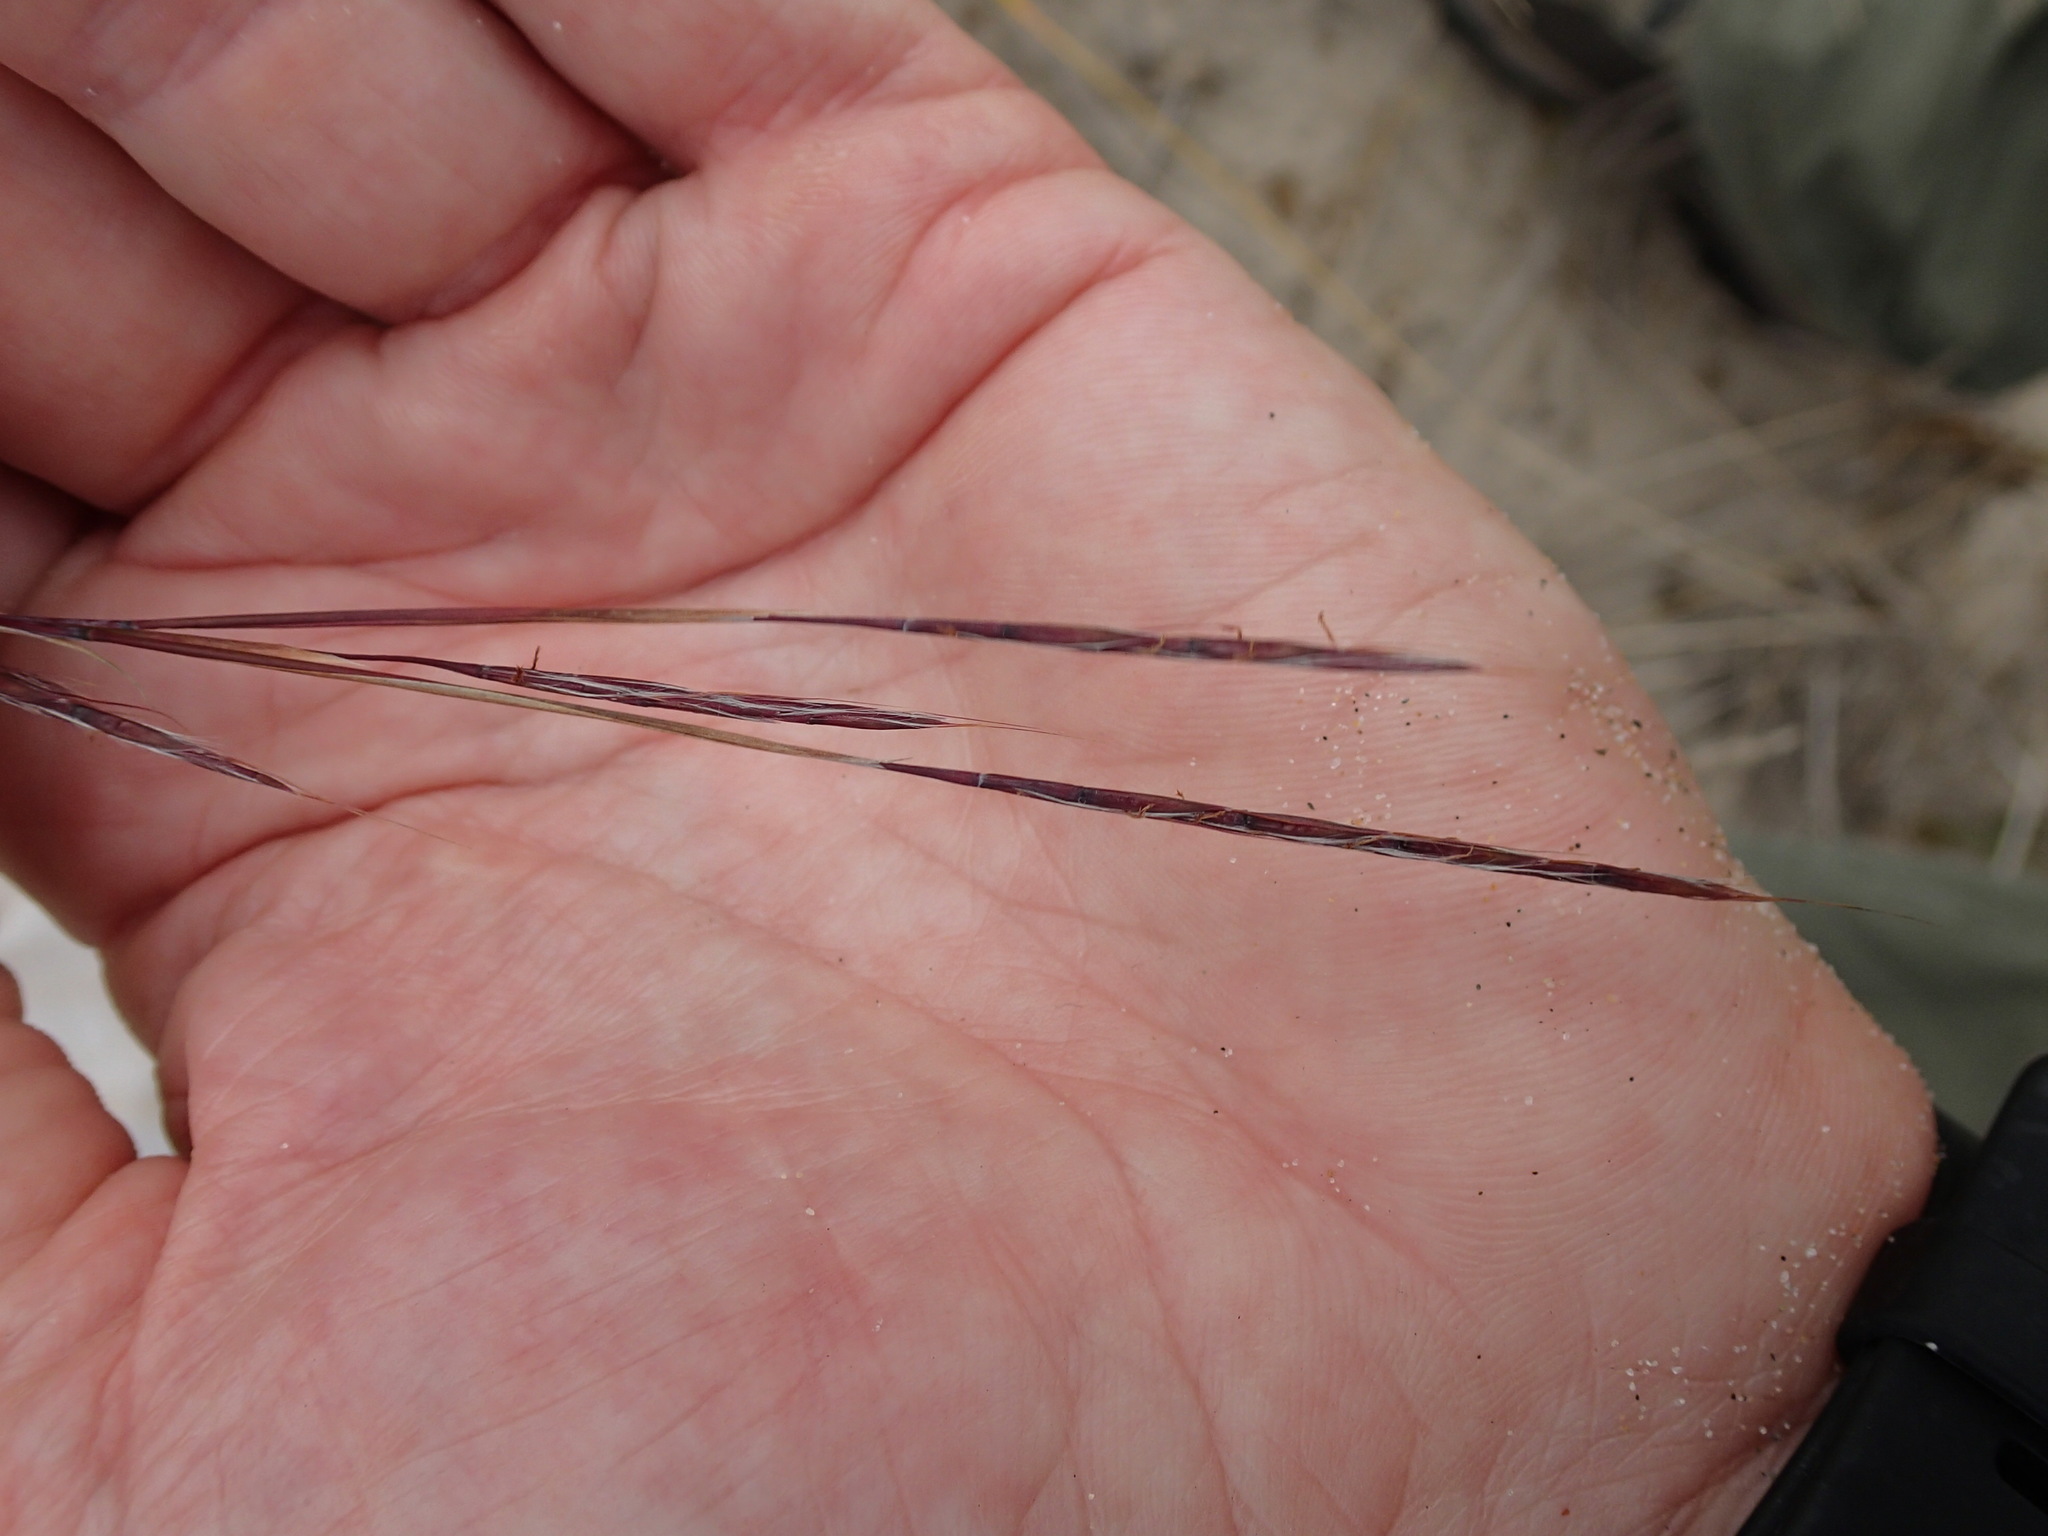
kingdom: Plantae
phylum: Tracheophyta
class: Liliopsida
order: Poales
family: Poaceae
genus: Schizachyrium
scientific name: Schizachyrium scoparium
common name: Little bluestem
